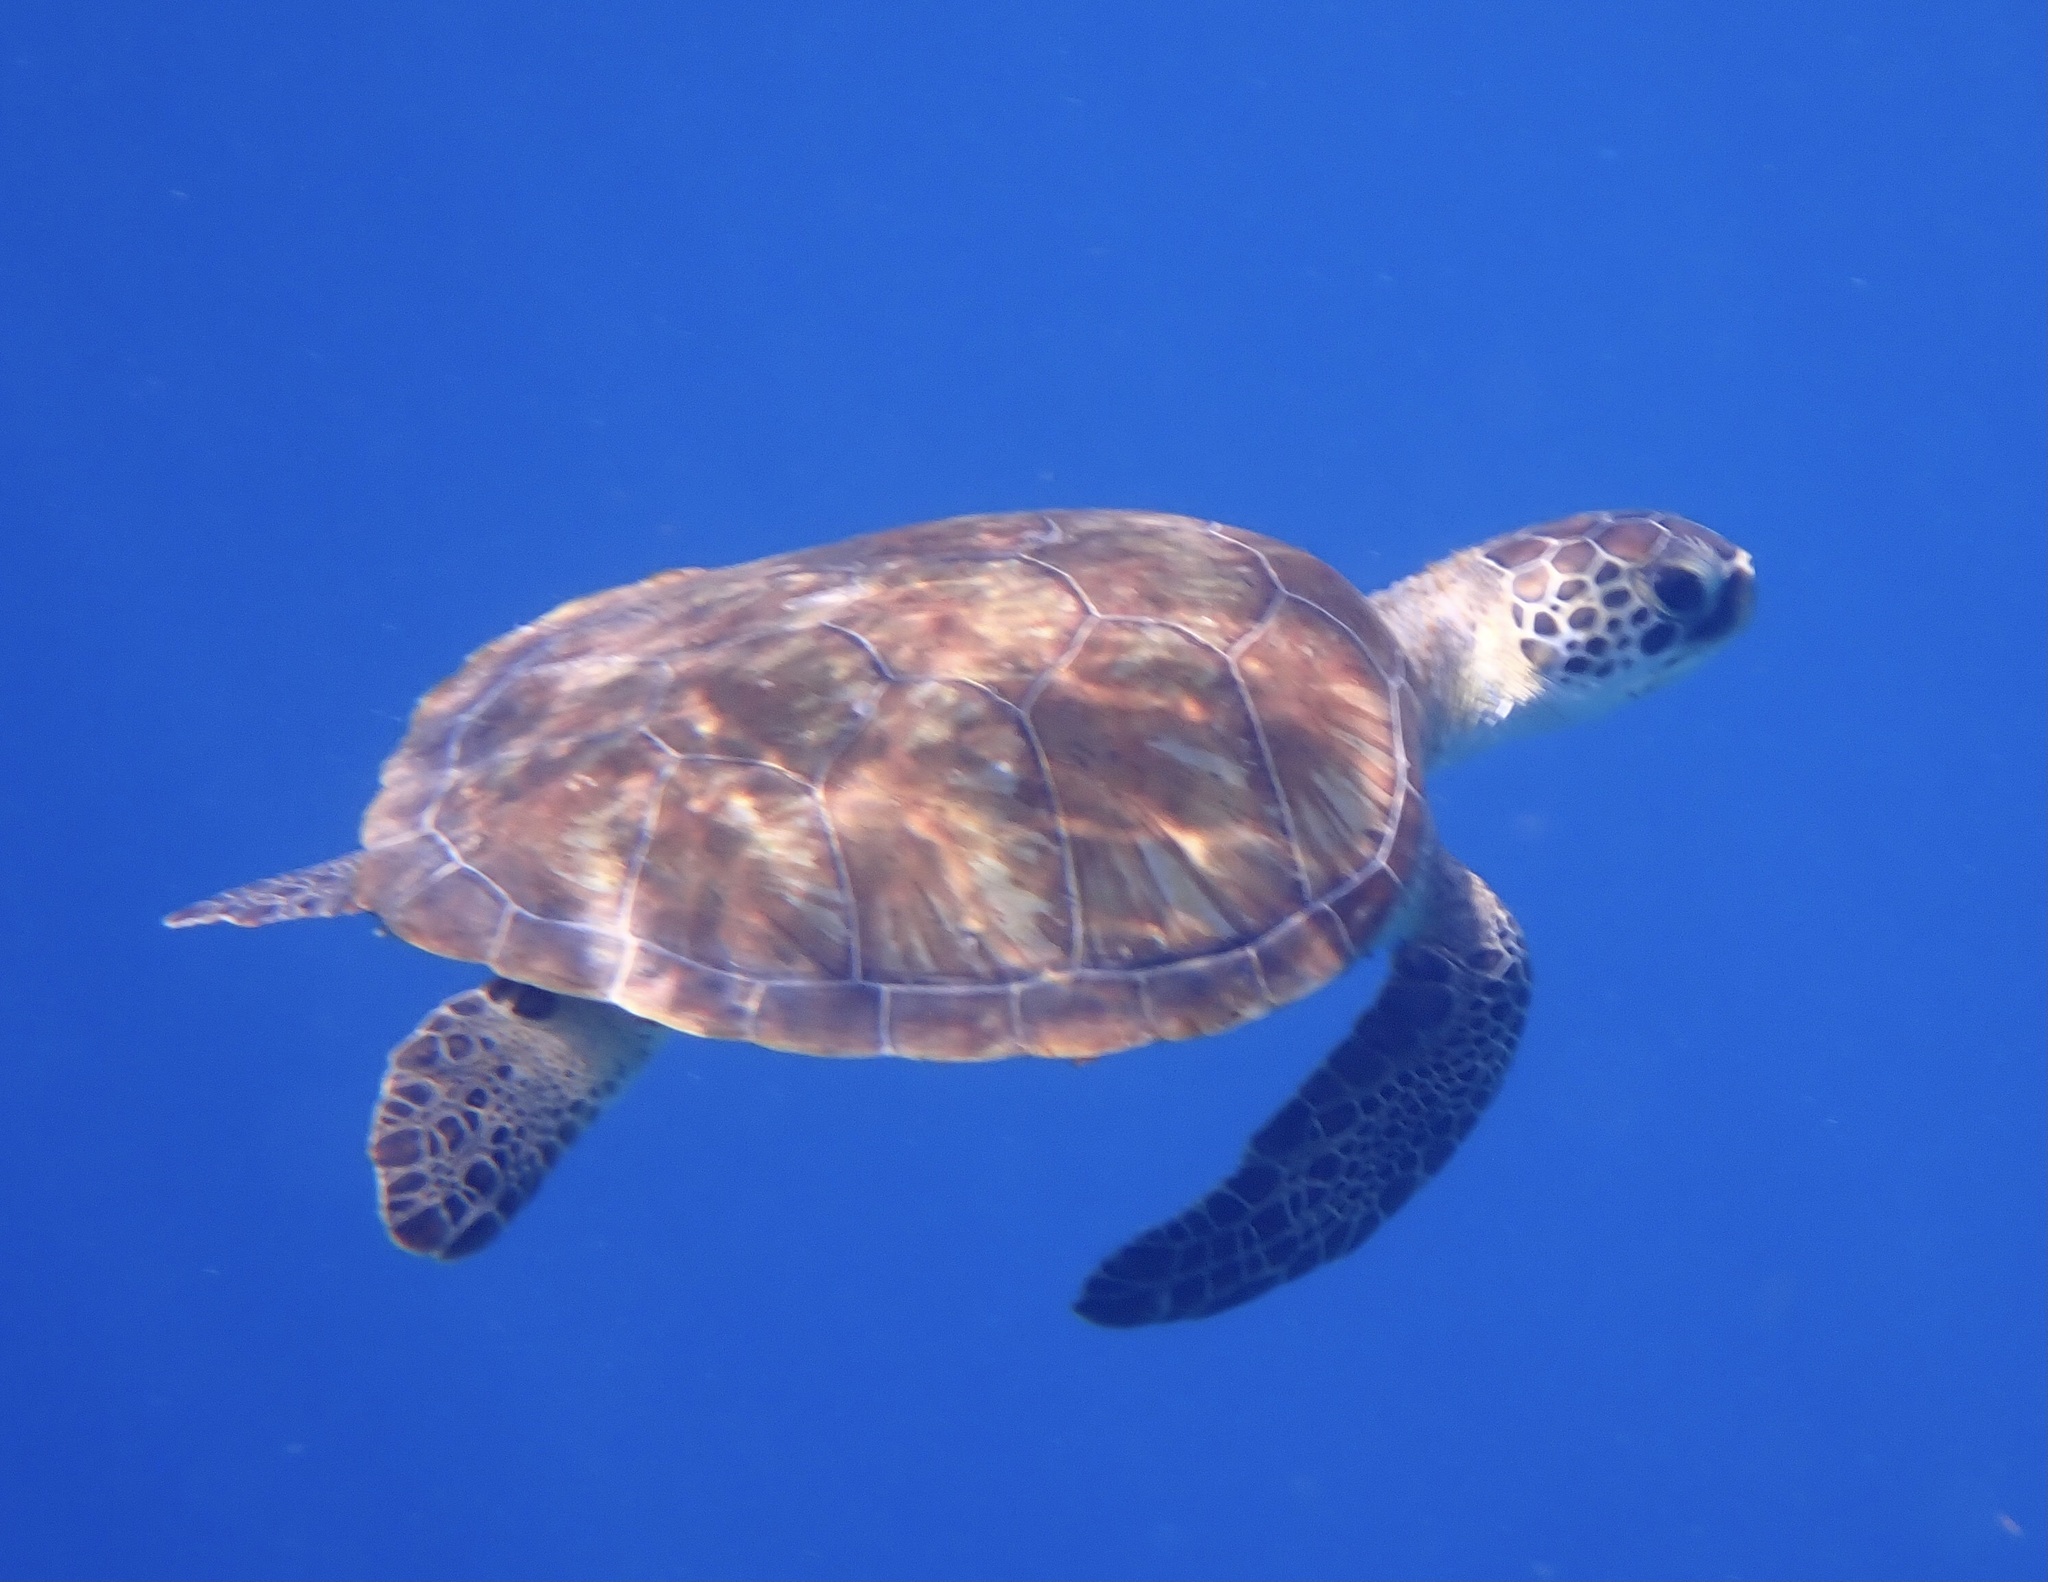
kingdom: Animalia
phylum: Chordata
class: Testudines
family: Cheloniidae
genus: Chelonia
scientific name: Chelonia mydas
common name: Green turtle
